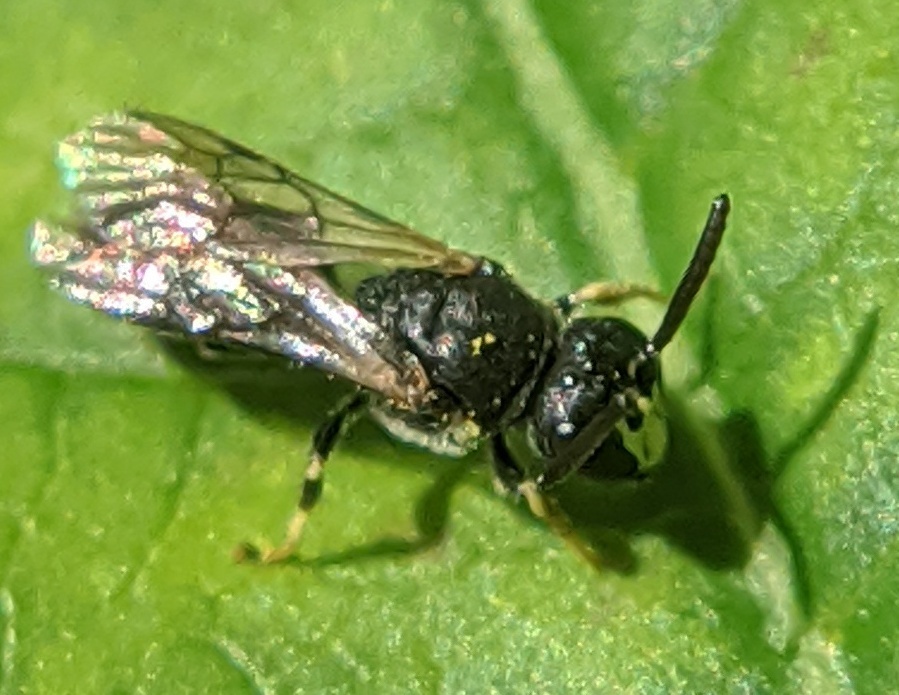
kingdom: Animalia
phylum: Arthropoda
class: Insecta
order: Hymenoptera
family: Colletidae
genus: Hylaeus
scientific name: Hylaeus
